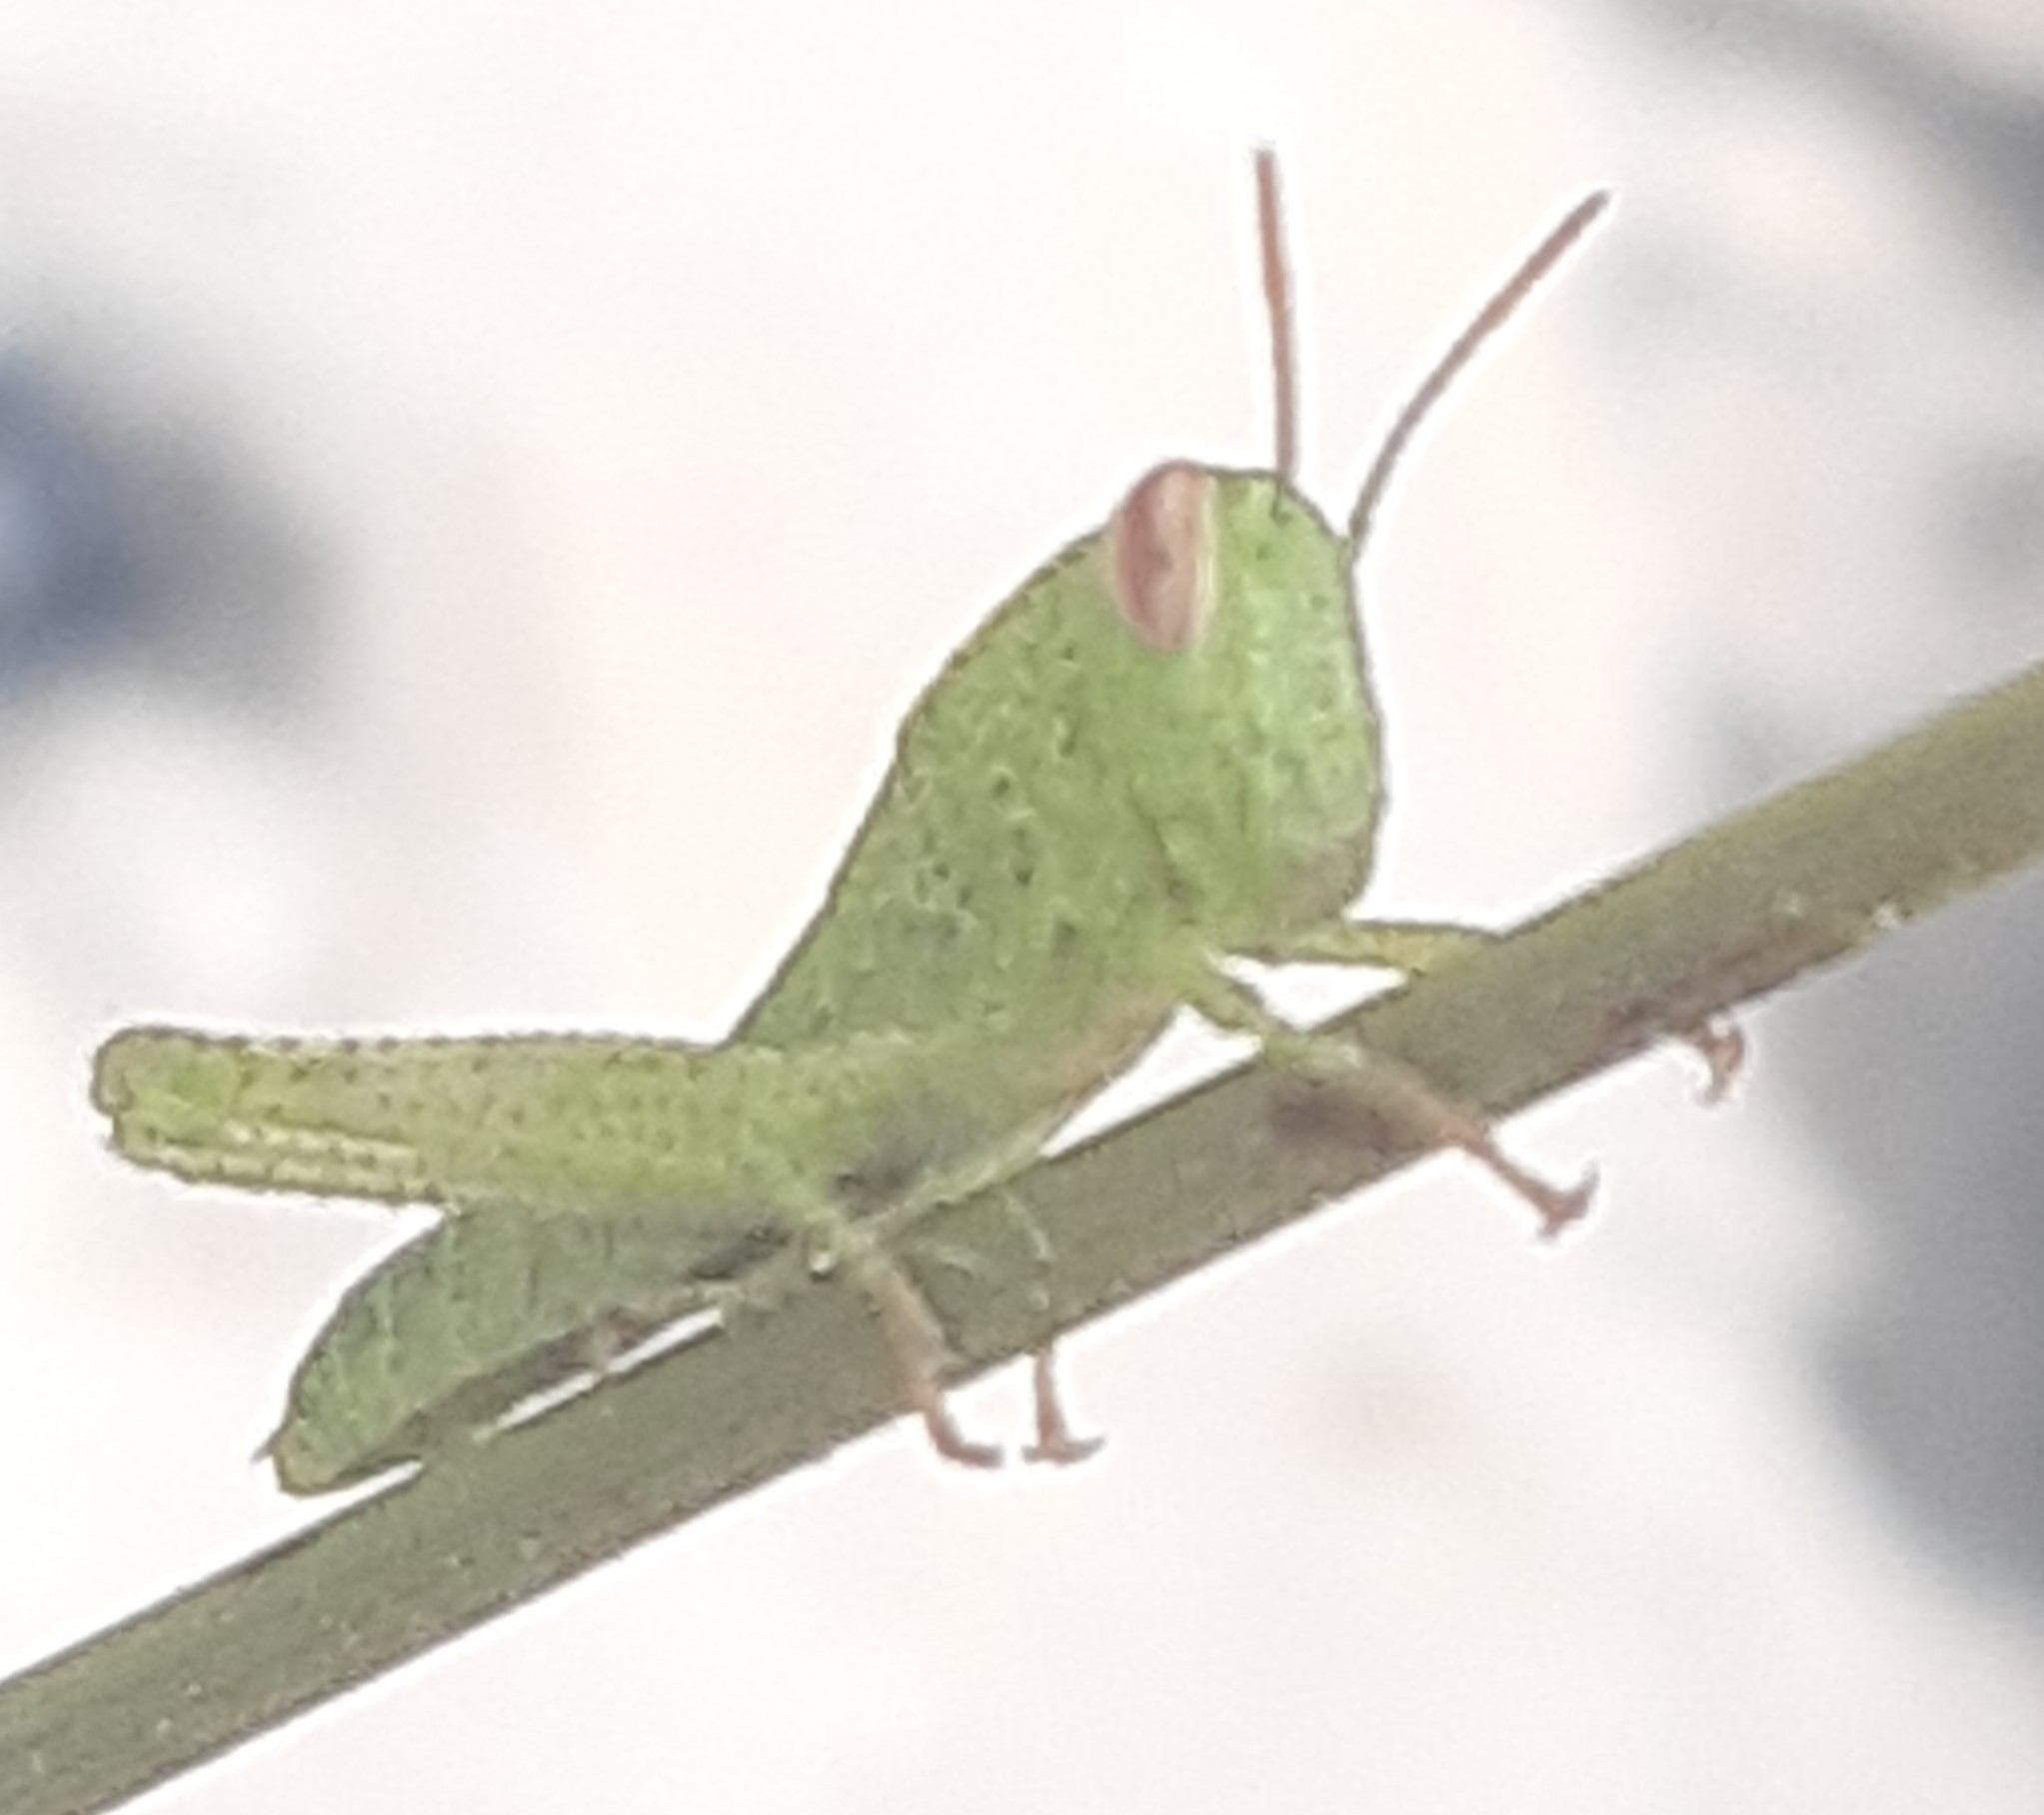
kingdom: Animalia
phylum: Arthropoda
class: Insecta
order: Orthoptera
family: Acrididae
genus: Anacridium
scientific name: Anacridium aegyptium
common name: Egyptian grasshopper
